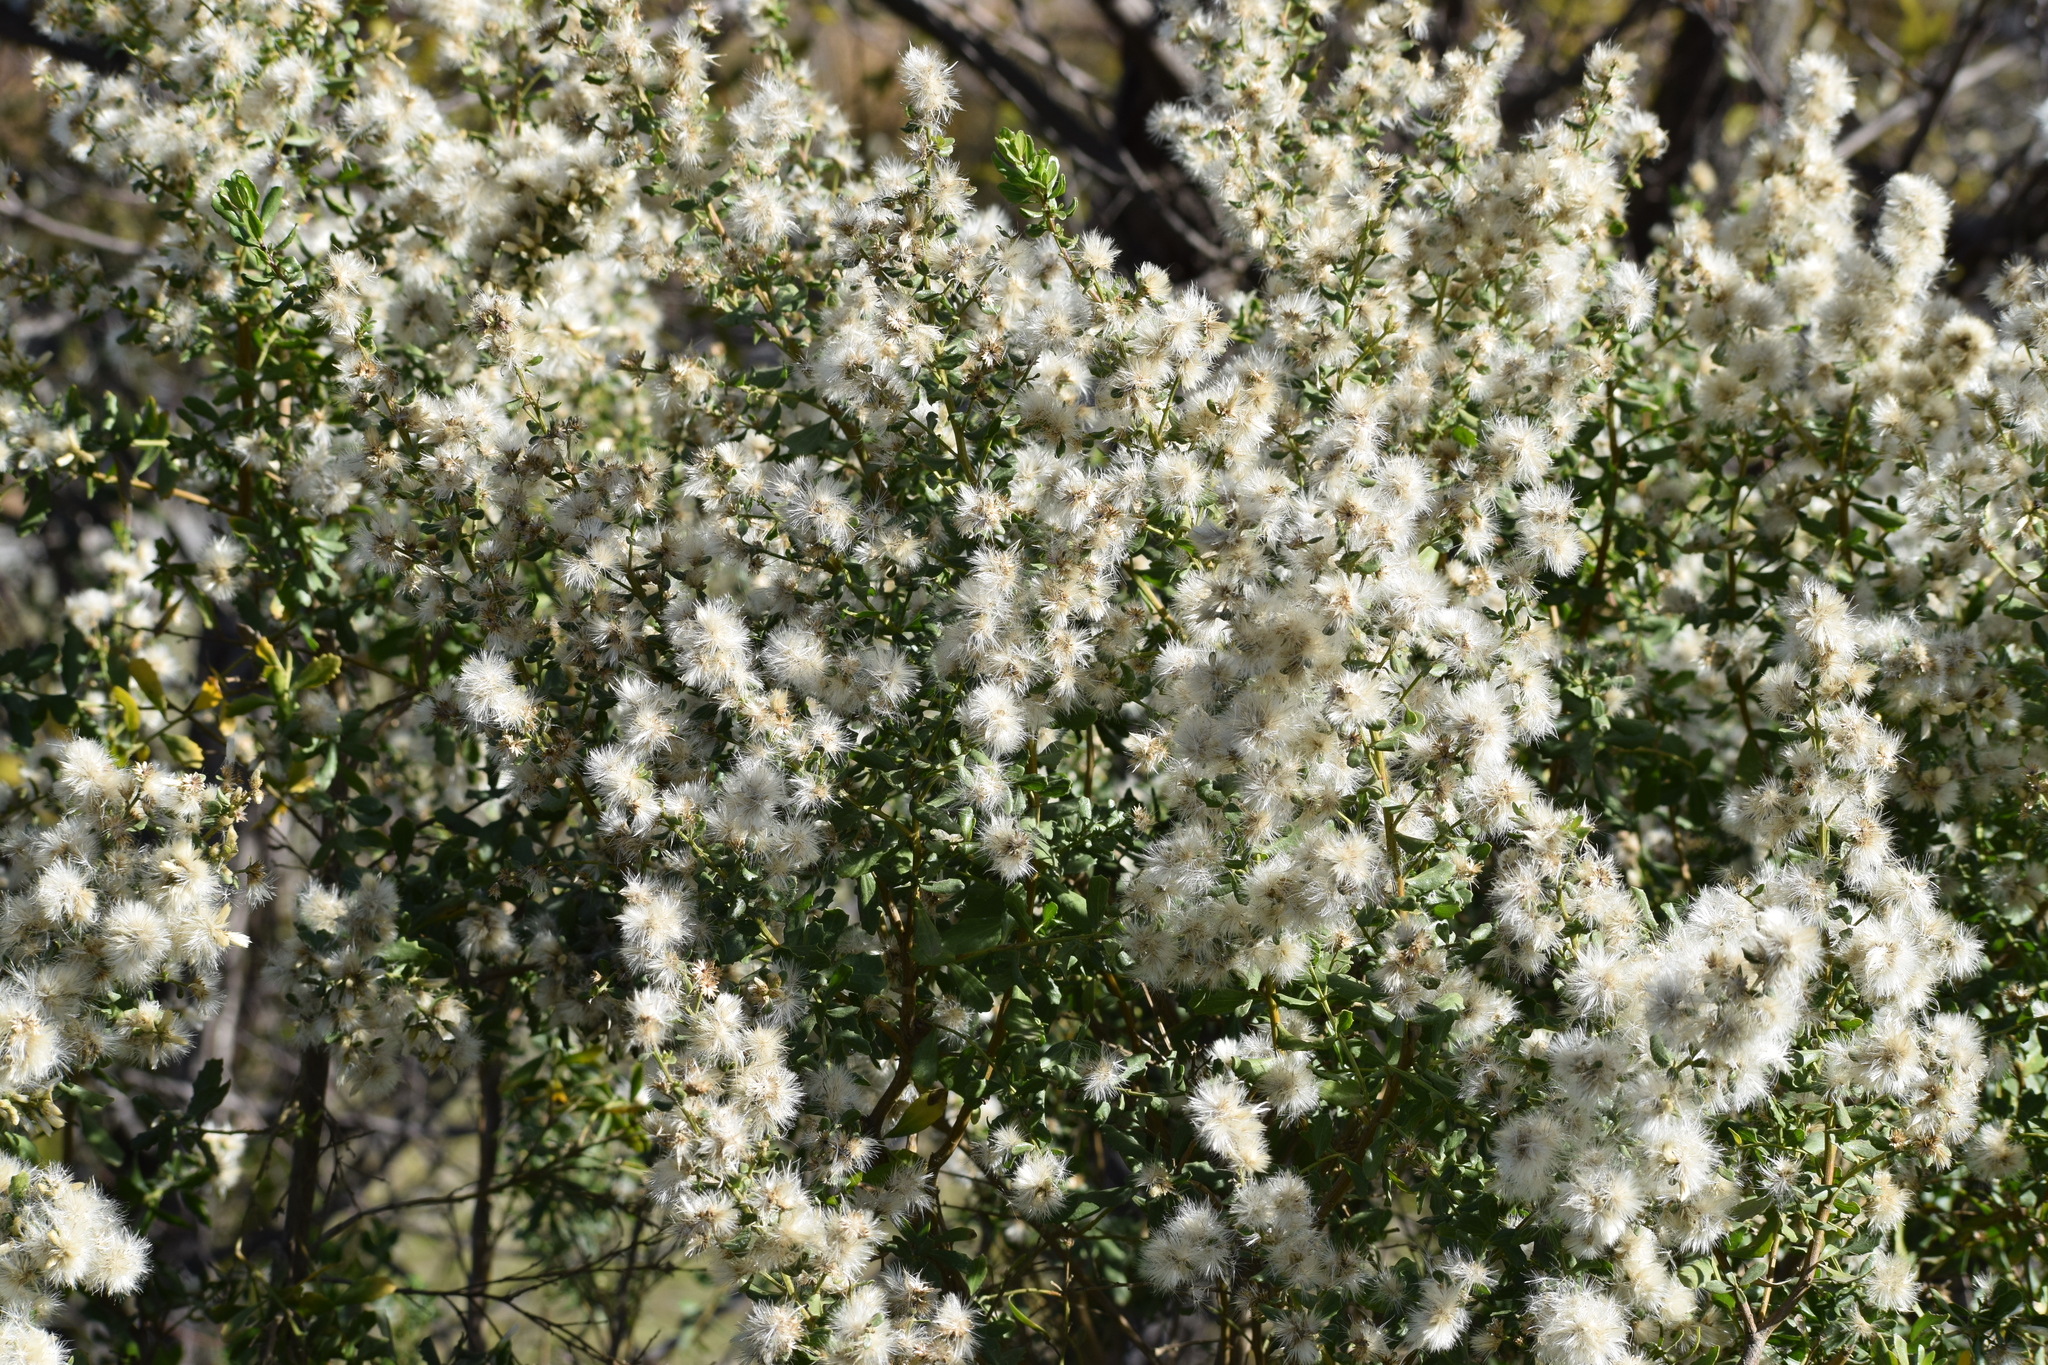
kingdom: Plantae
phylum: Tracheophyta
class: Magnoliopsida
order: Asterales
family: Asteraceae
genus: Baccharis
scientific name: Baccharis pilularis
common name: Coyotebrush
